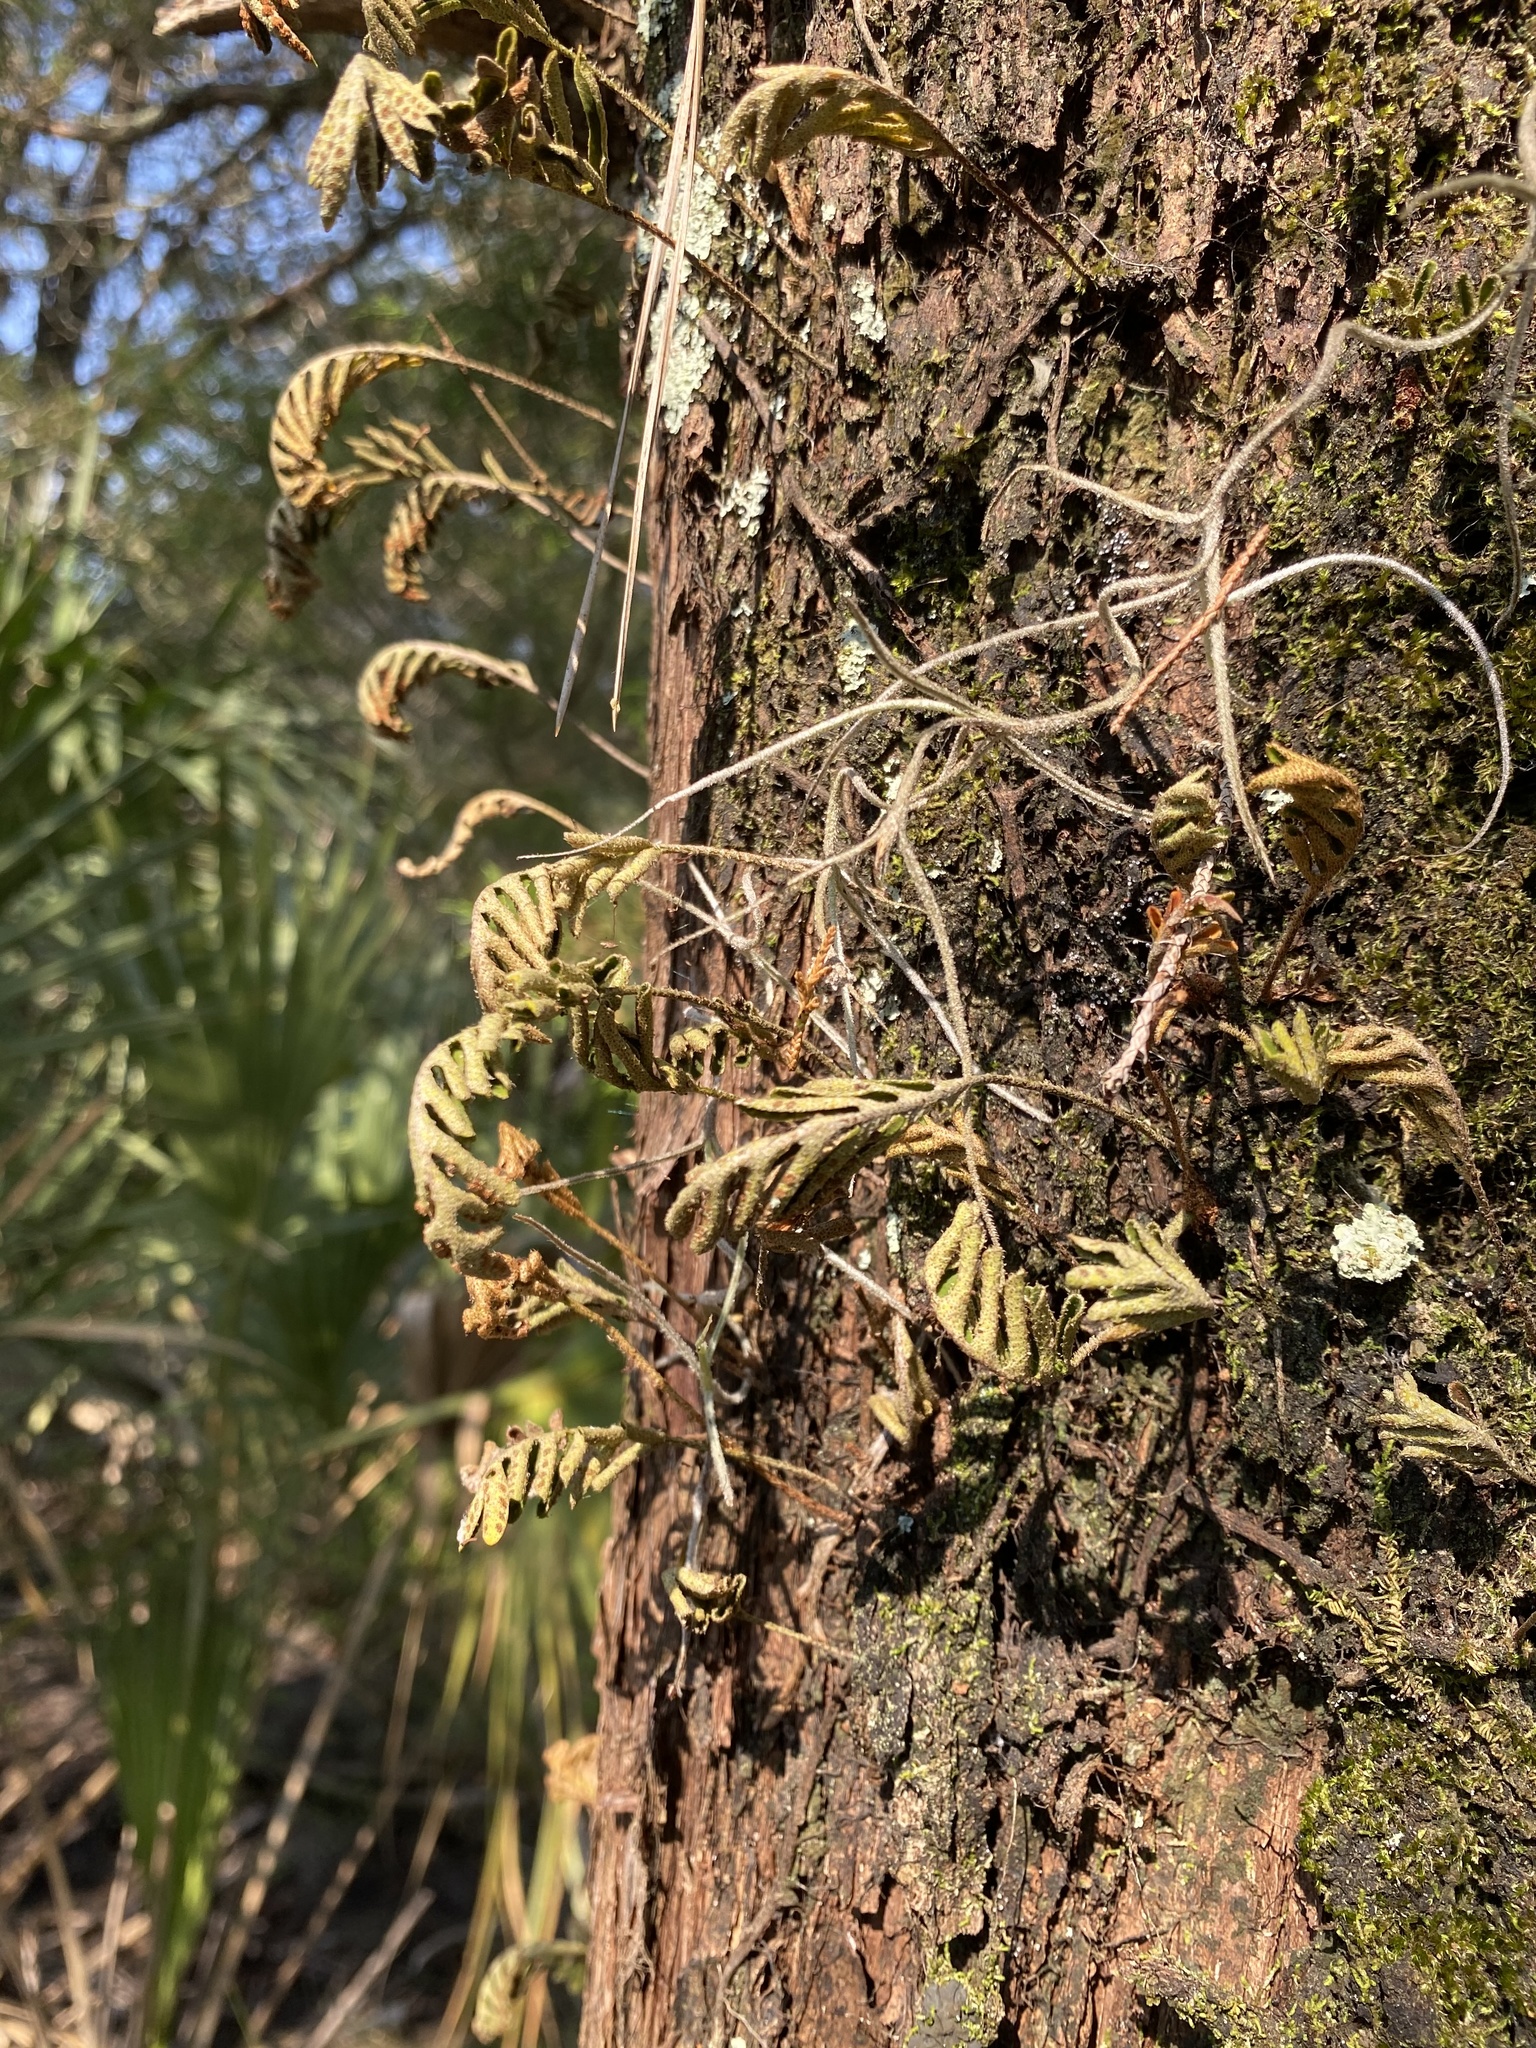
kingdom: Plantae
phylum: Tracheophyta
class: Polypodiopsida
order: Polypodiales
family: Polypodiaceae
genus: Pleopeltis
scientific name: Pleopeltis michauxiana
